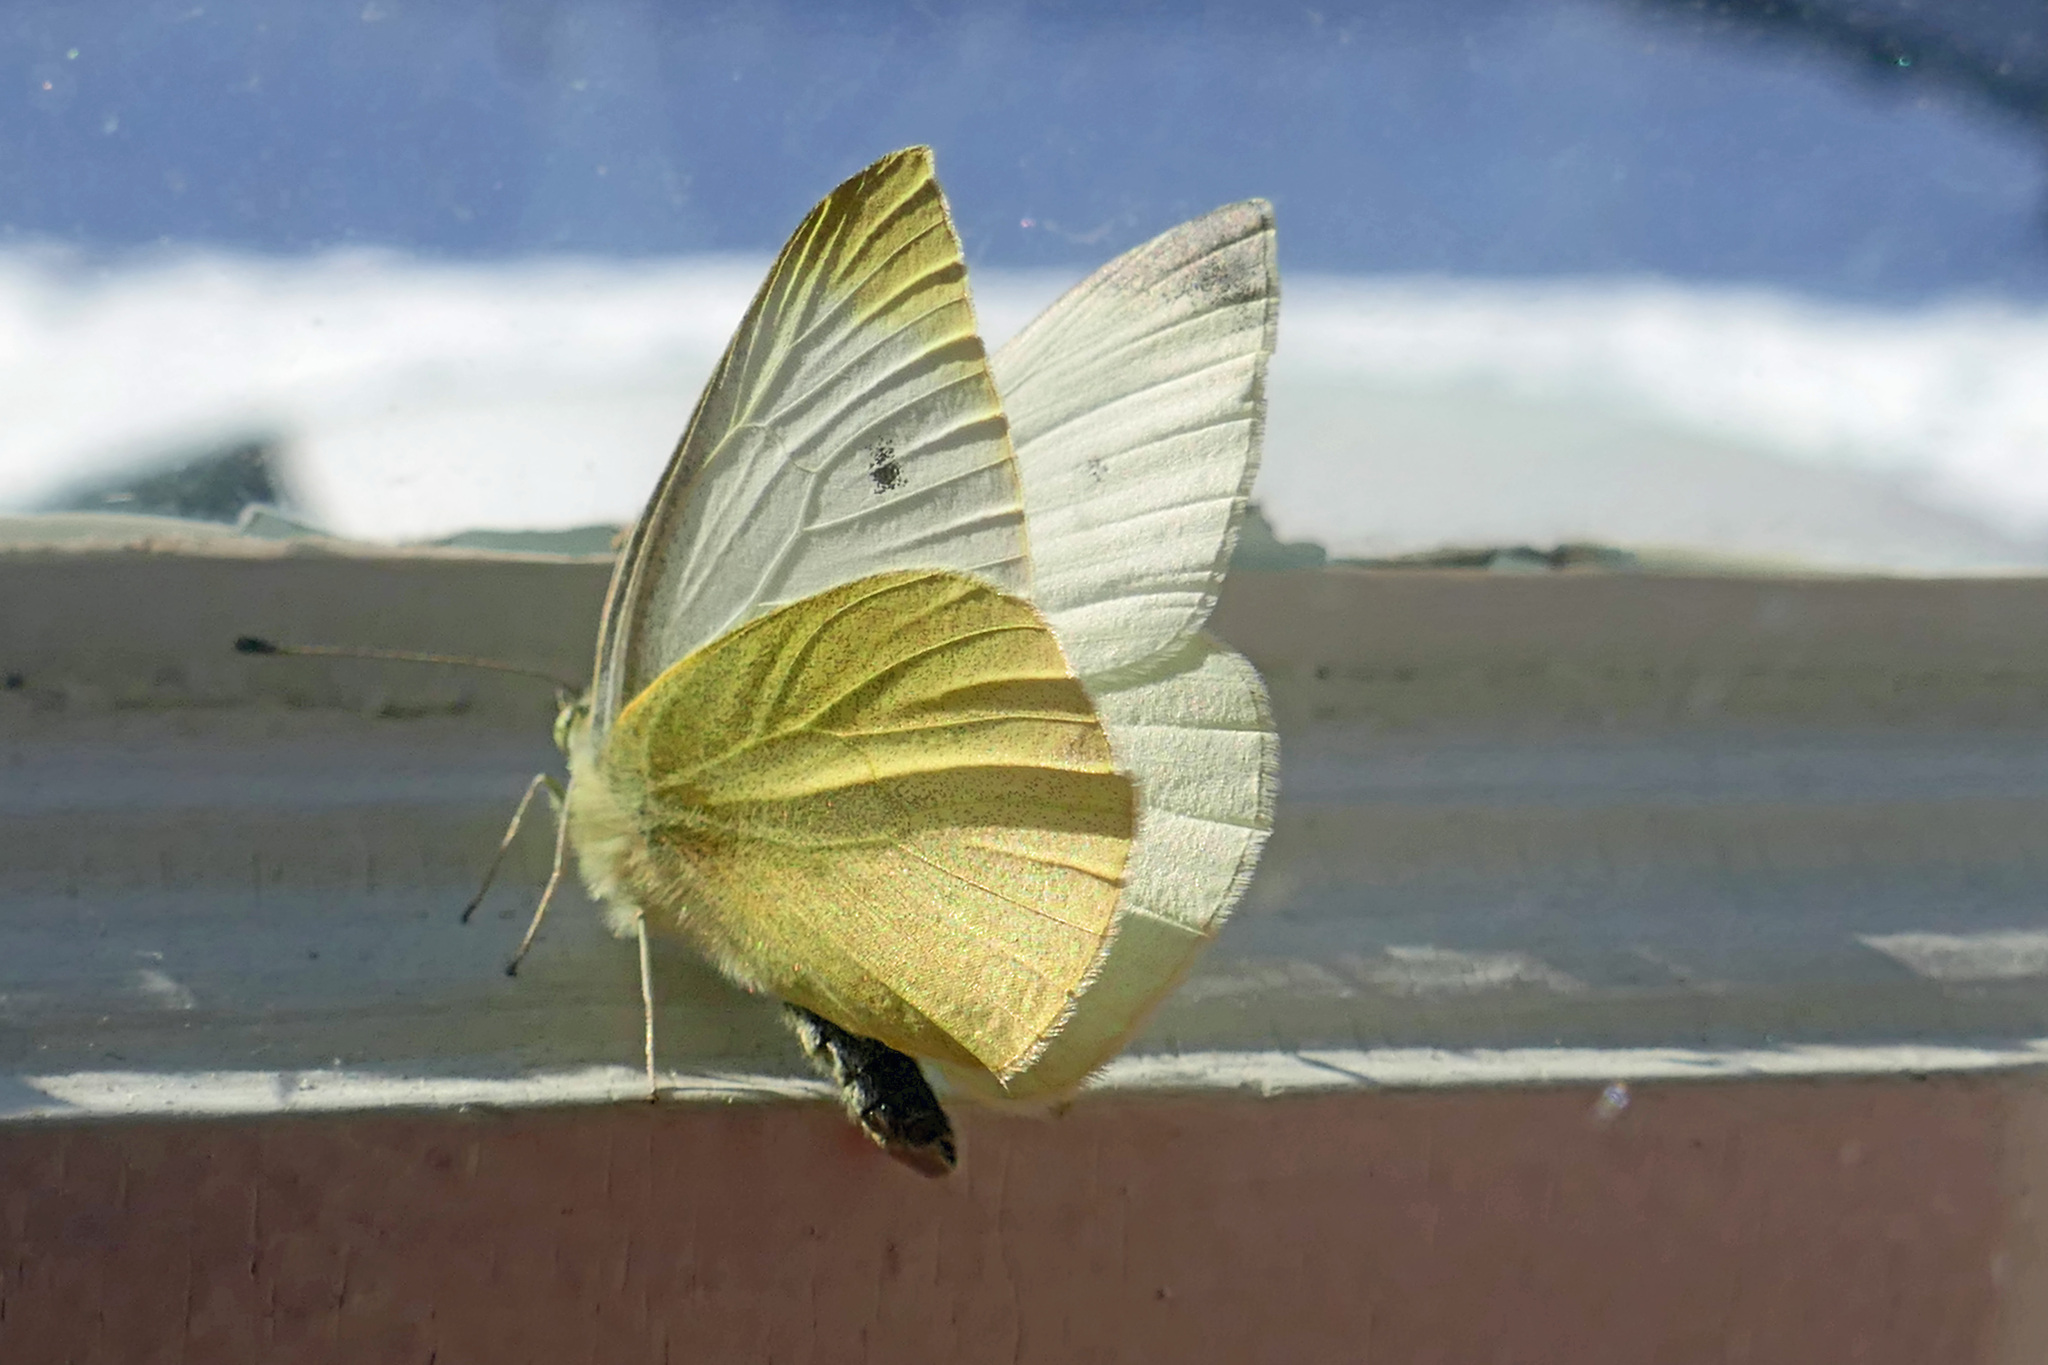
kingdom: Animalia
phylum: Arthropoda
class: Insecta
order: Lepidoptera
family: Pieridae
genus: Pieris
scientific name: Pieris rapae
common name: Small white
